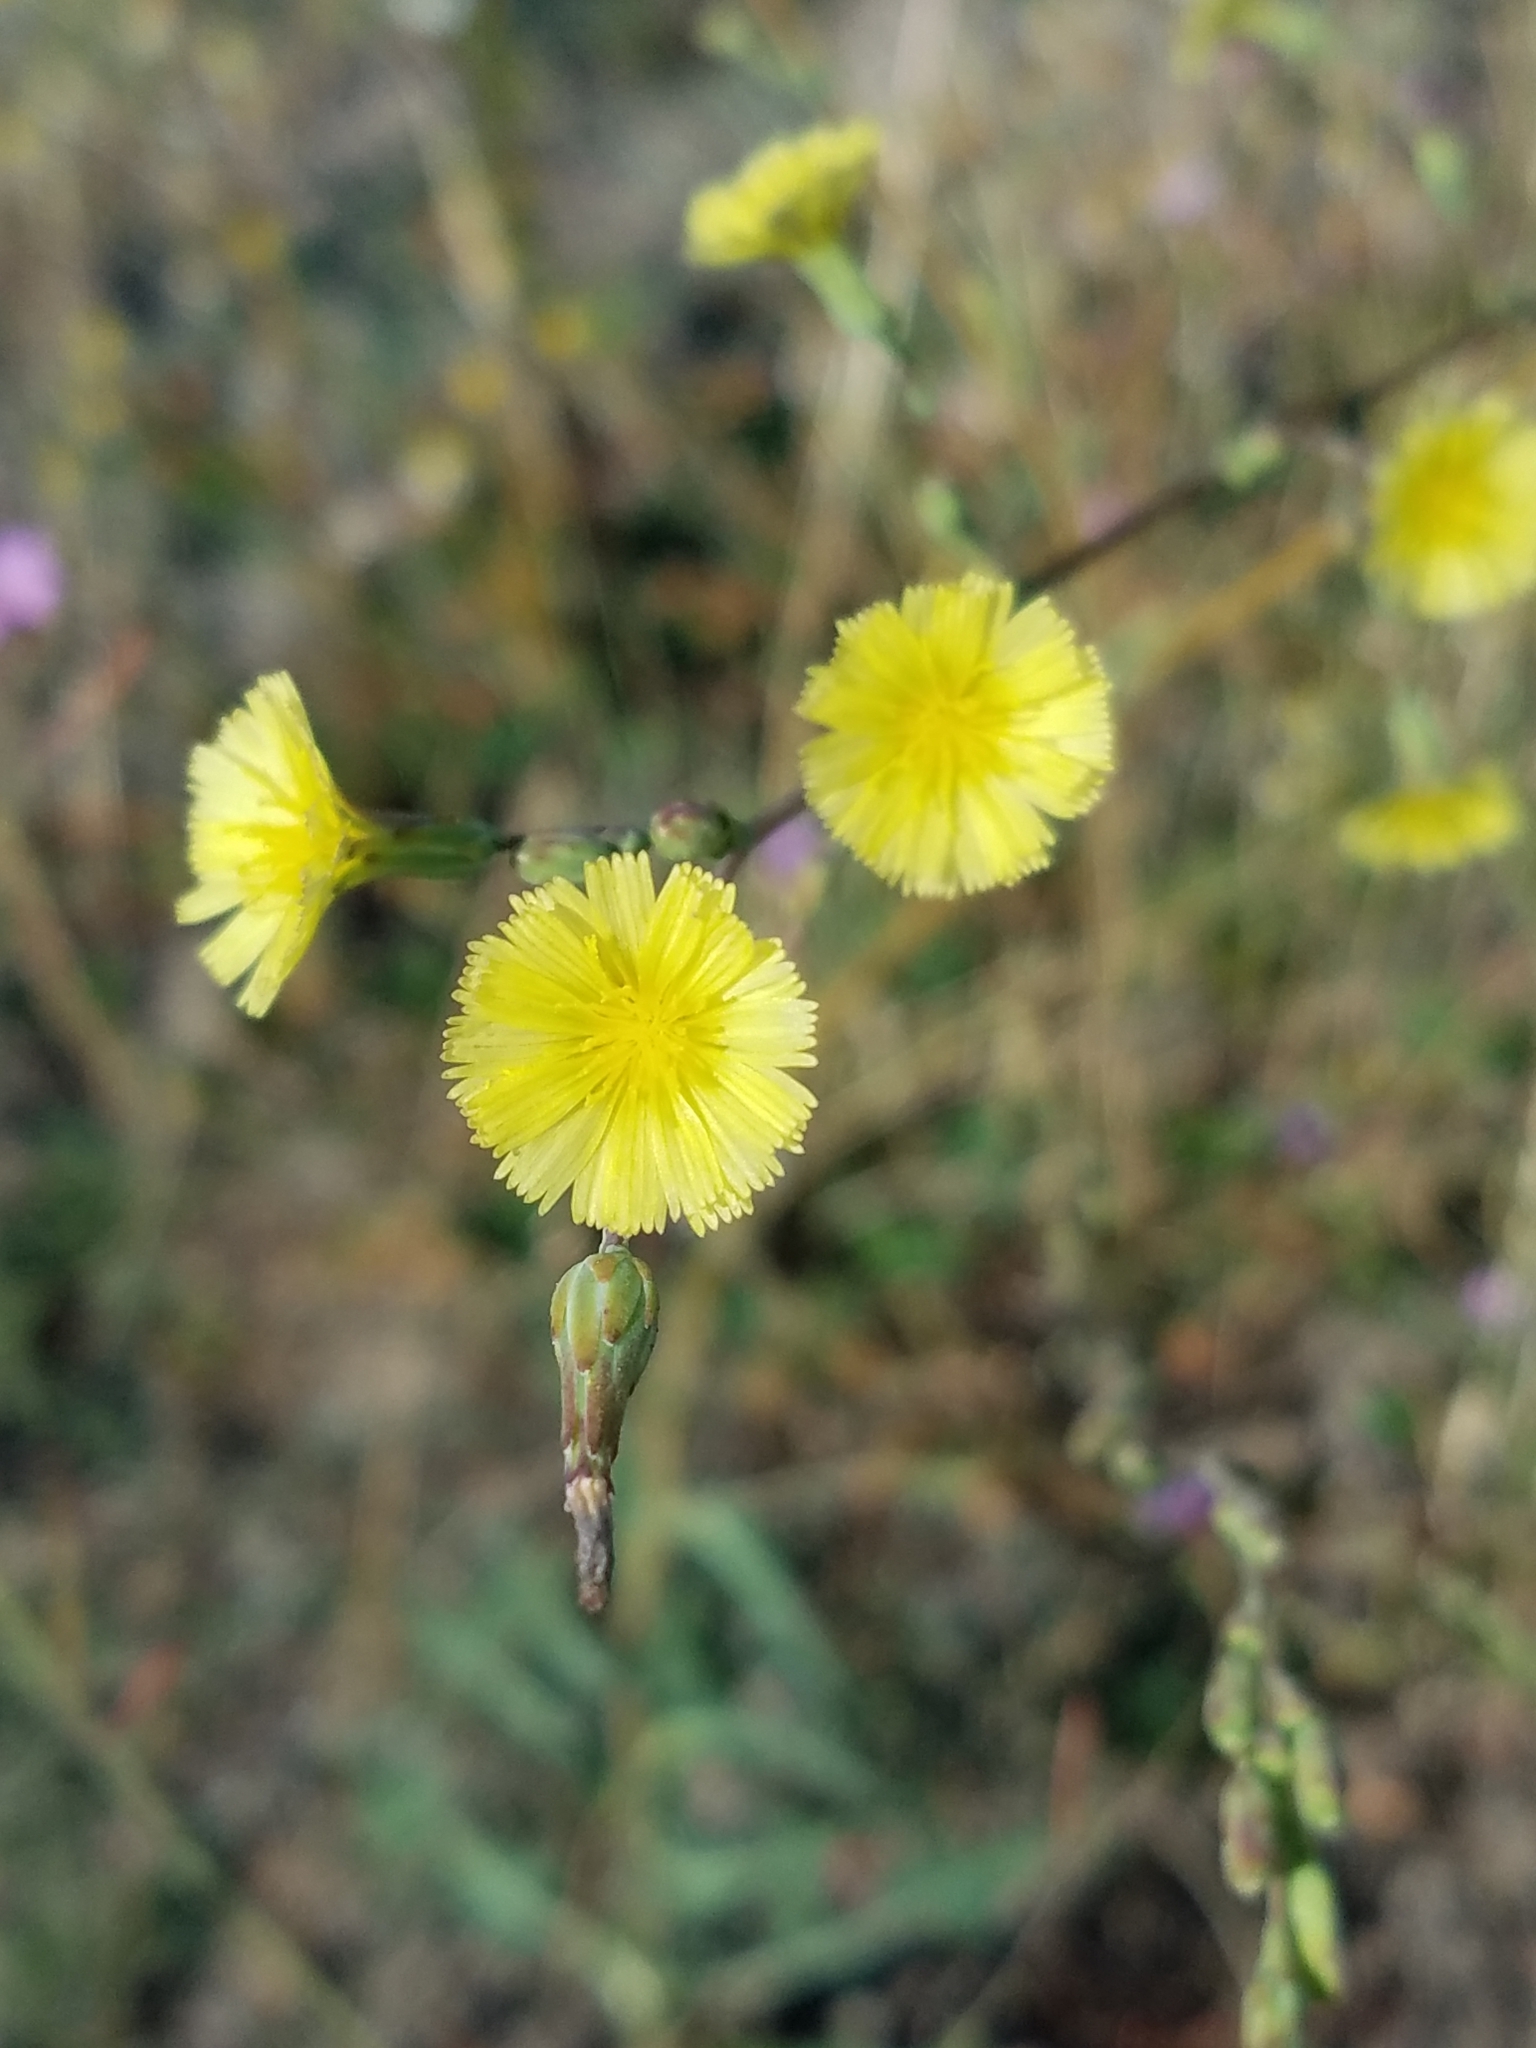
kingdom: Plantae
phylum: Tracheophyta
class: Magnoliopsida
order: Asterales
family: Asteraceae
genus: Lactuca
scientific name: Lactuca serriola
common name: Prickly lettuce
